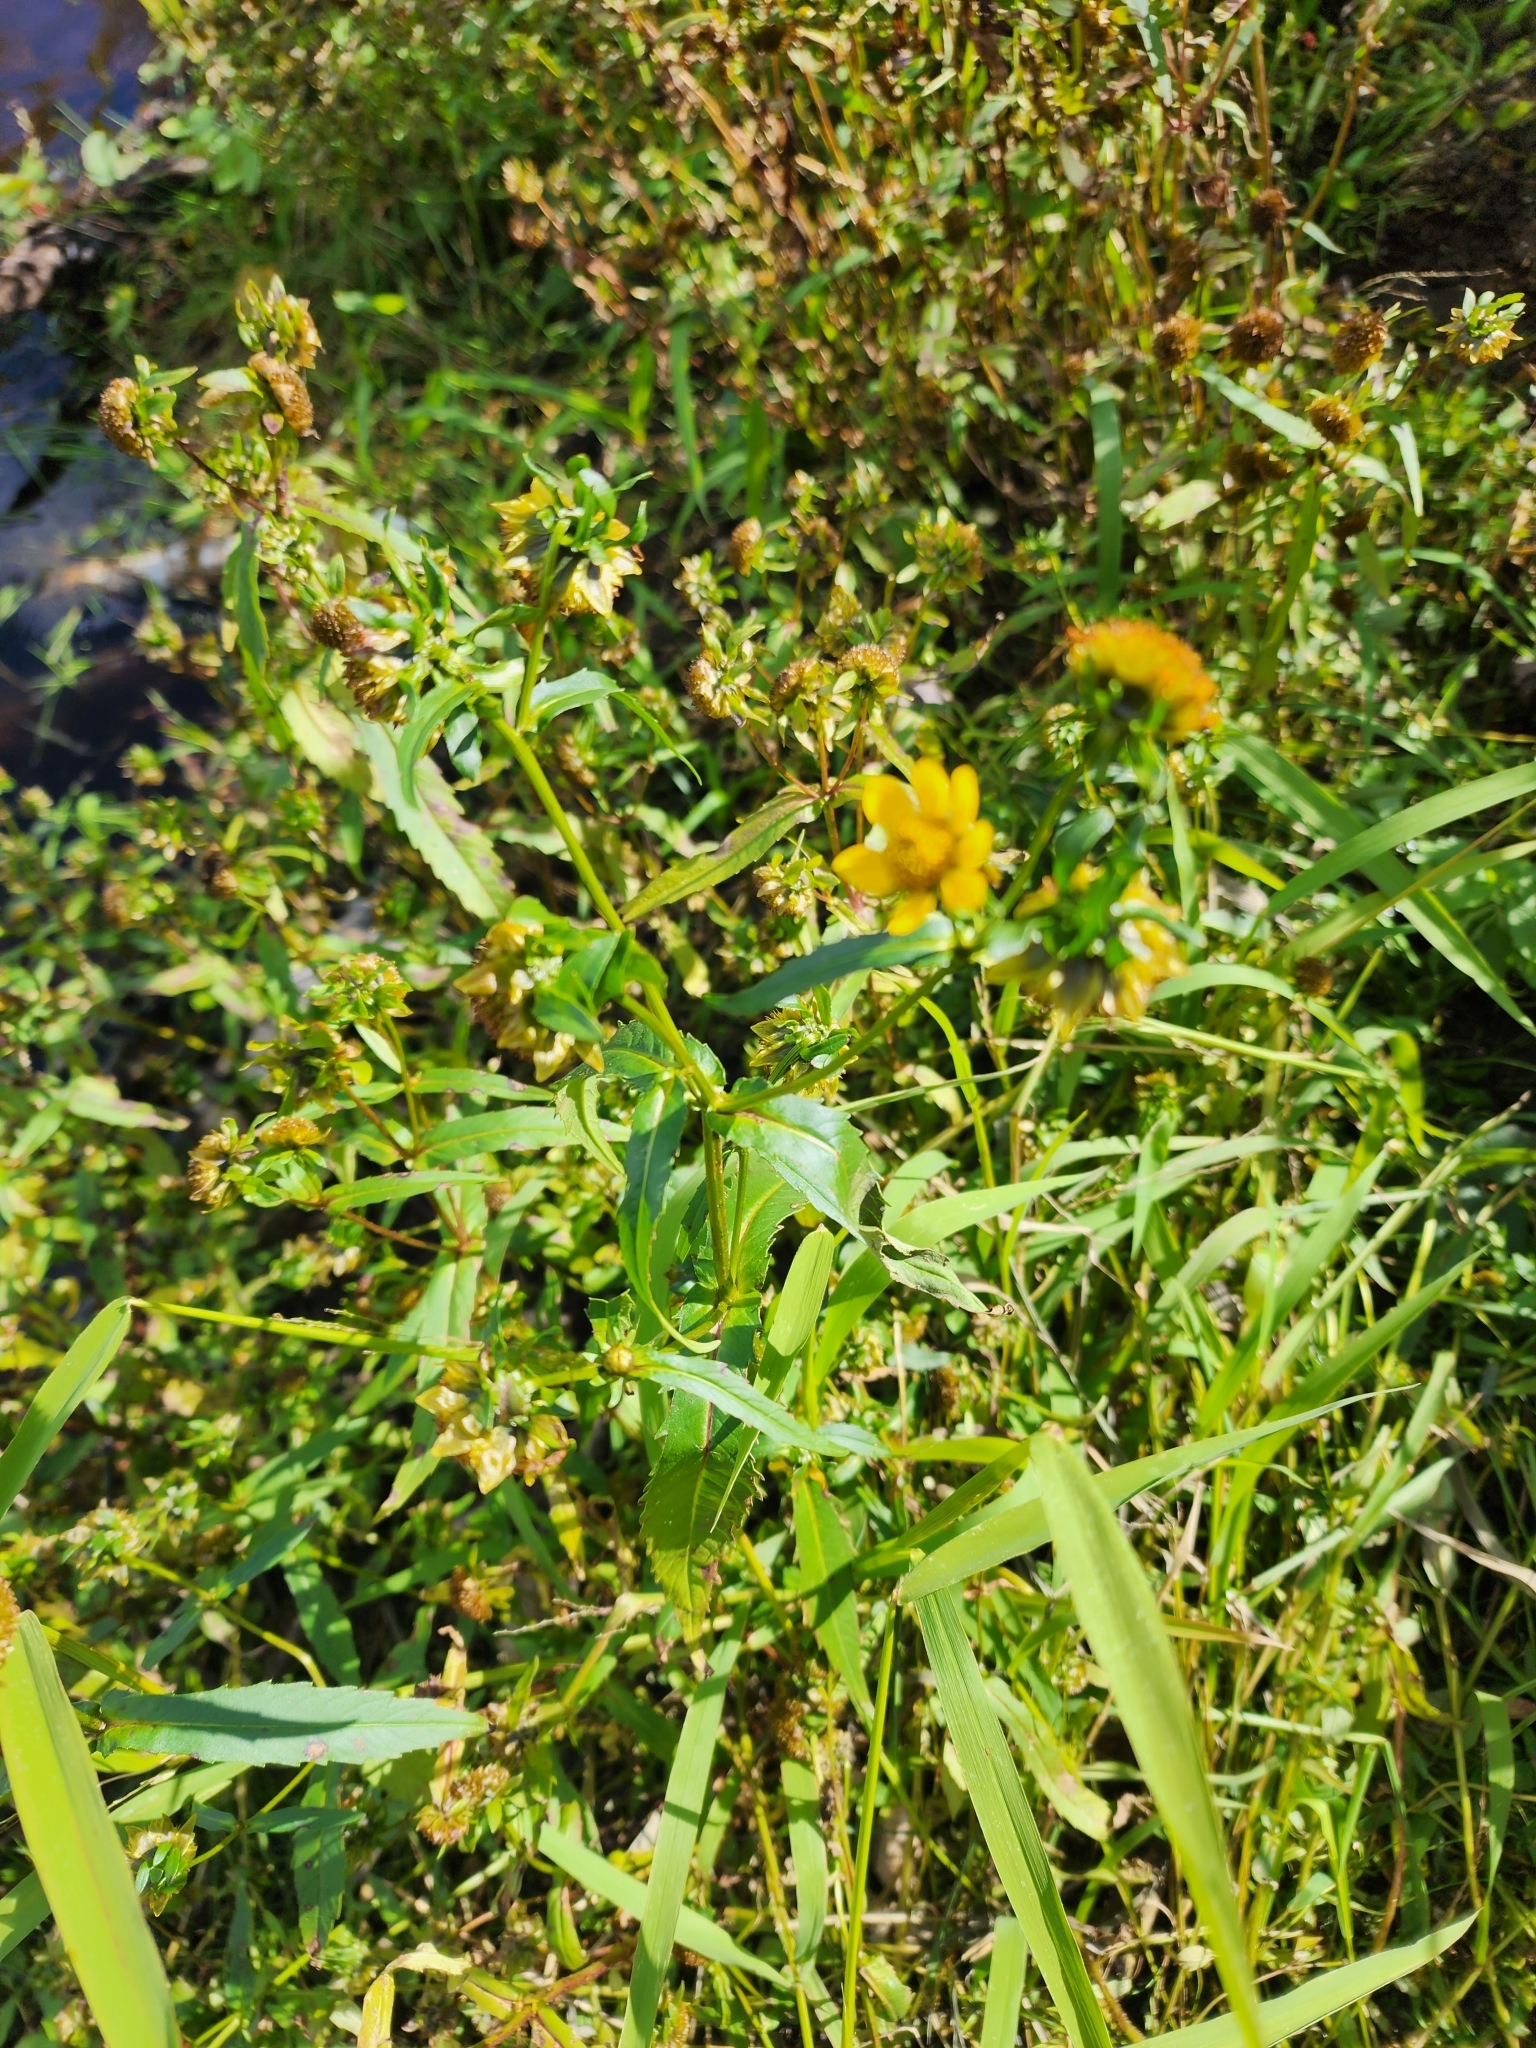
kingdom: Plantae
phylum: Tracheophyta
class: Magnoliopsida
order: Asterales
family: Asteraceae
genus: Bidens
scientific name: Bidens cernua
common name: Nodding bur-marigold
